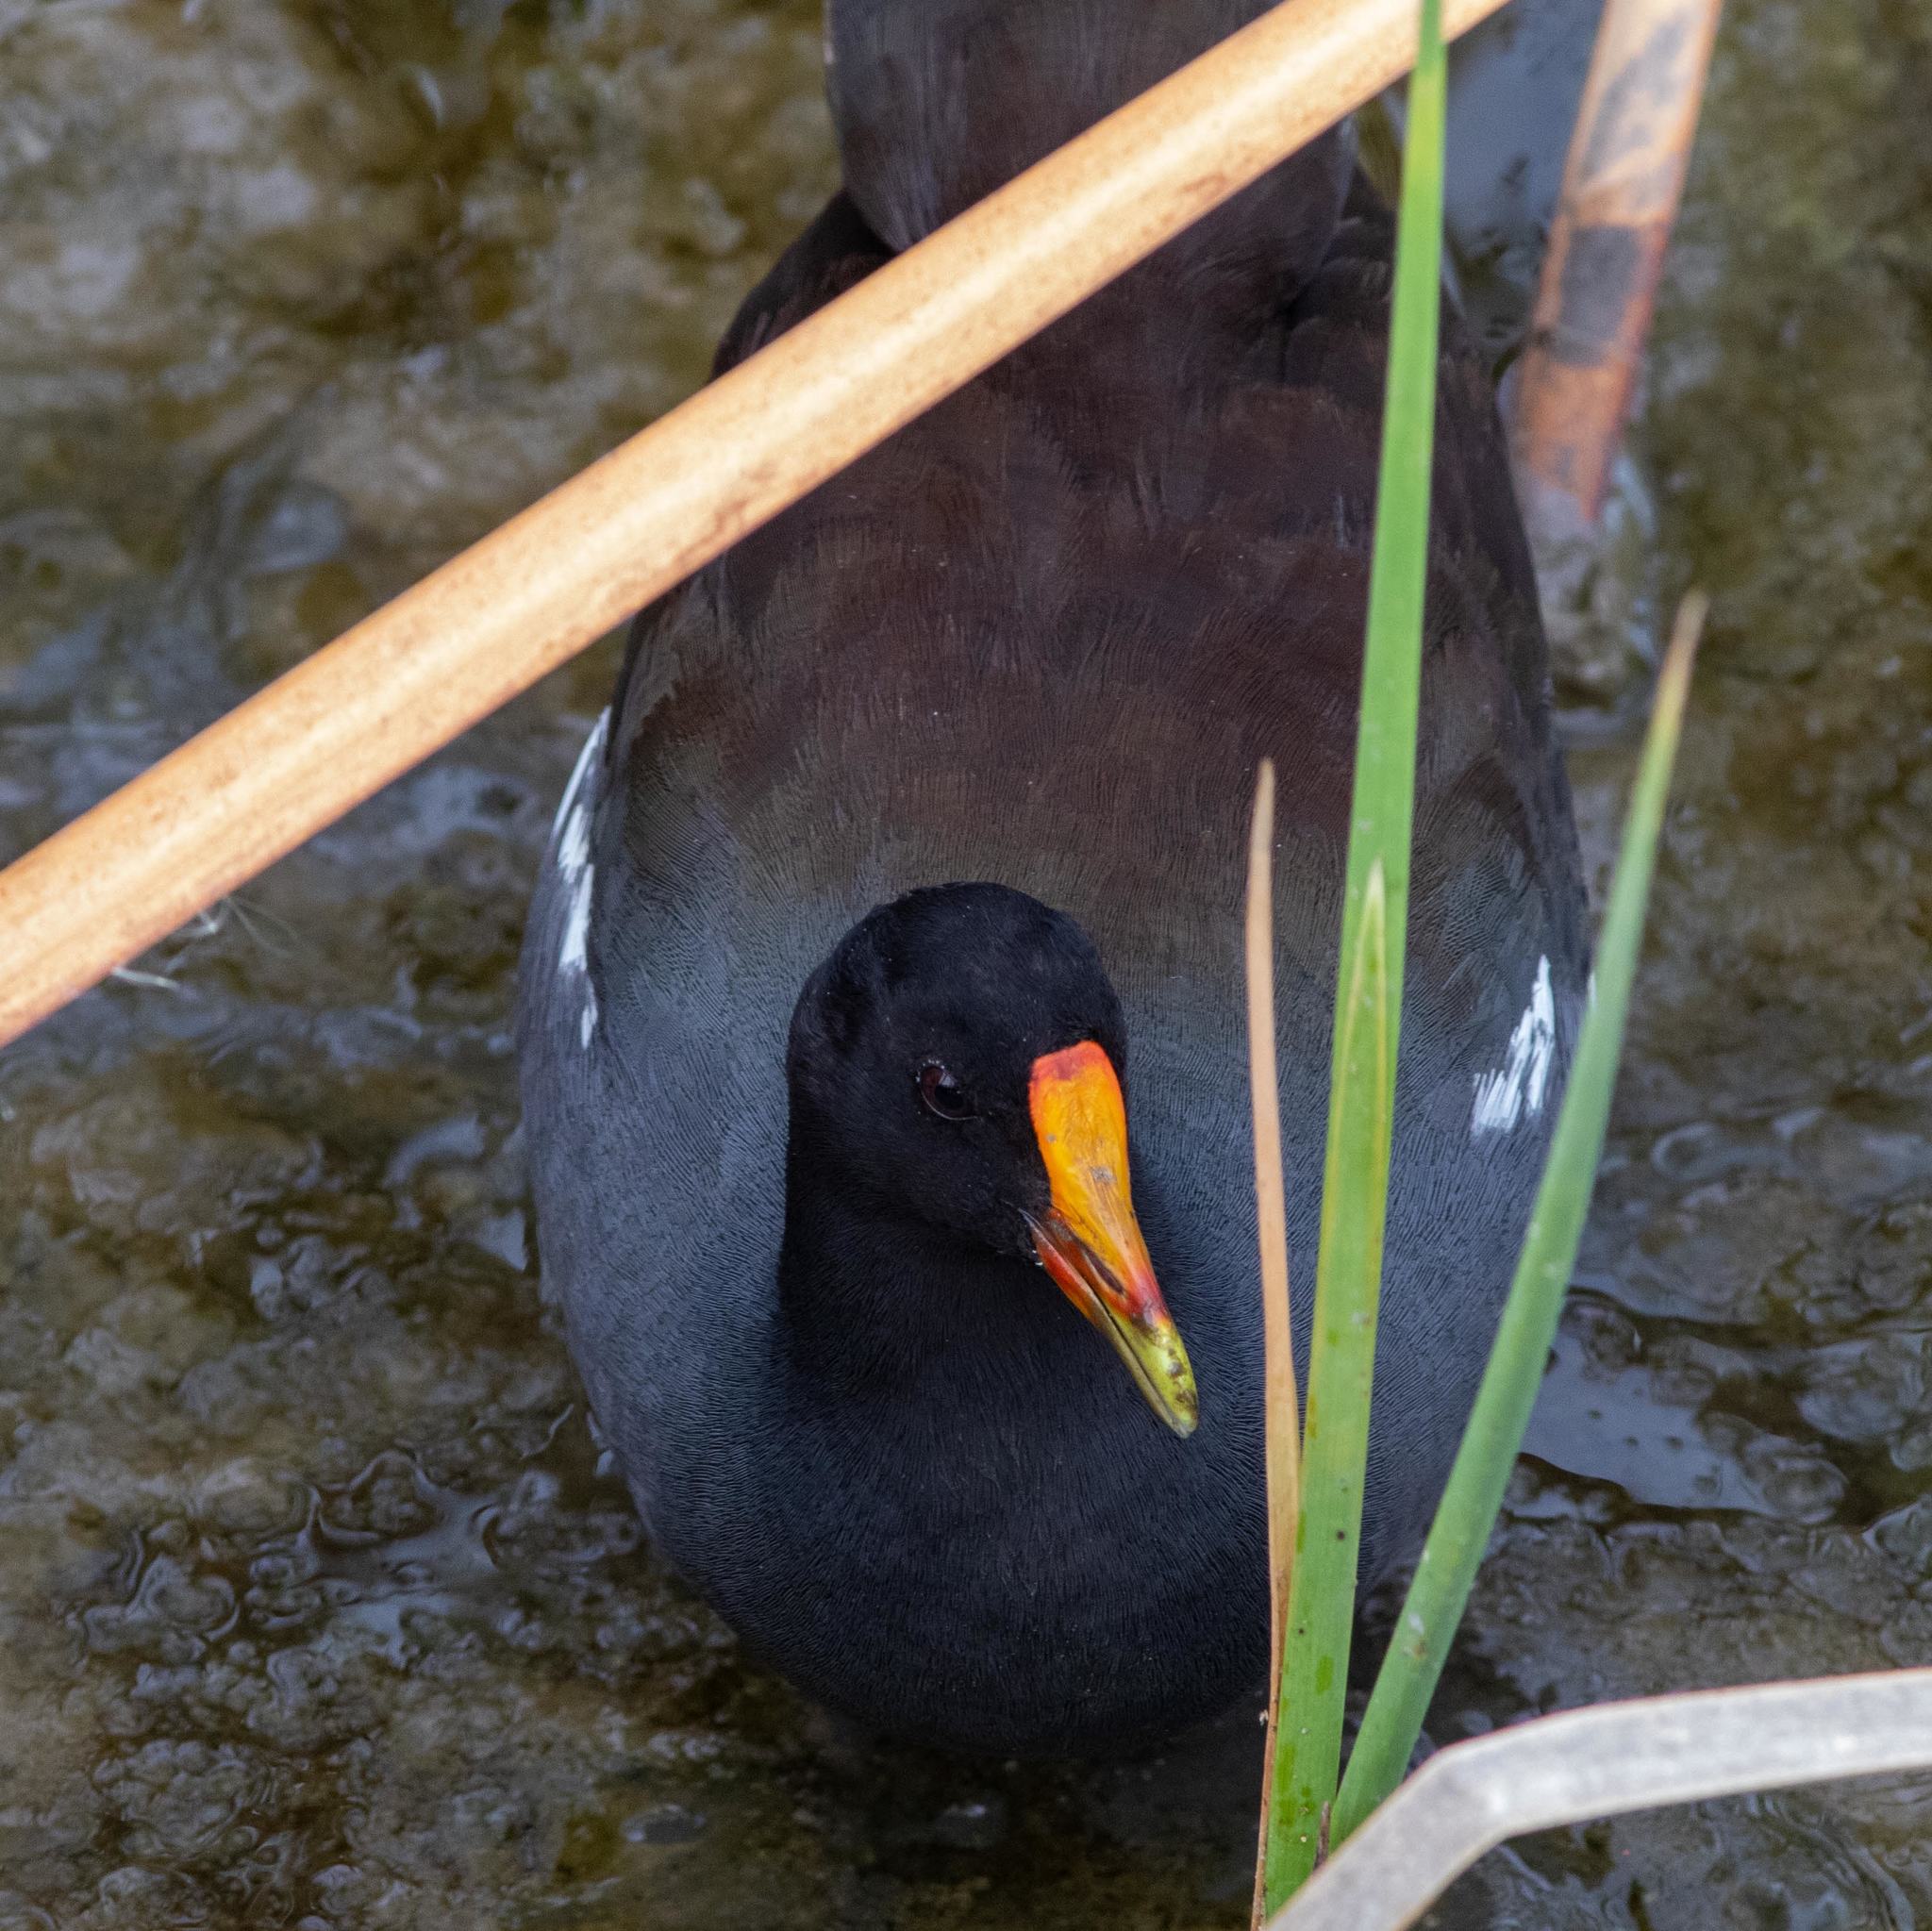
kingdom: Animalia
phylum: Chordata
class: Aves
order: Gruiformes
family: Rallidae
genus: Gallinula
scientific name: Gallinula chloropus
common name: Common moorhen
